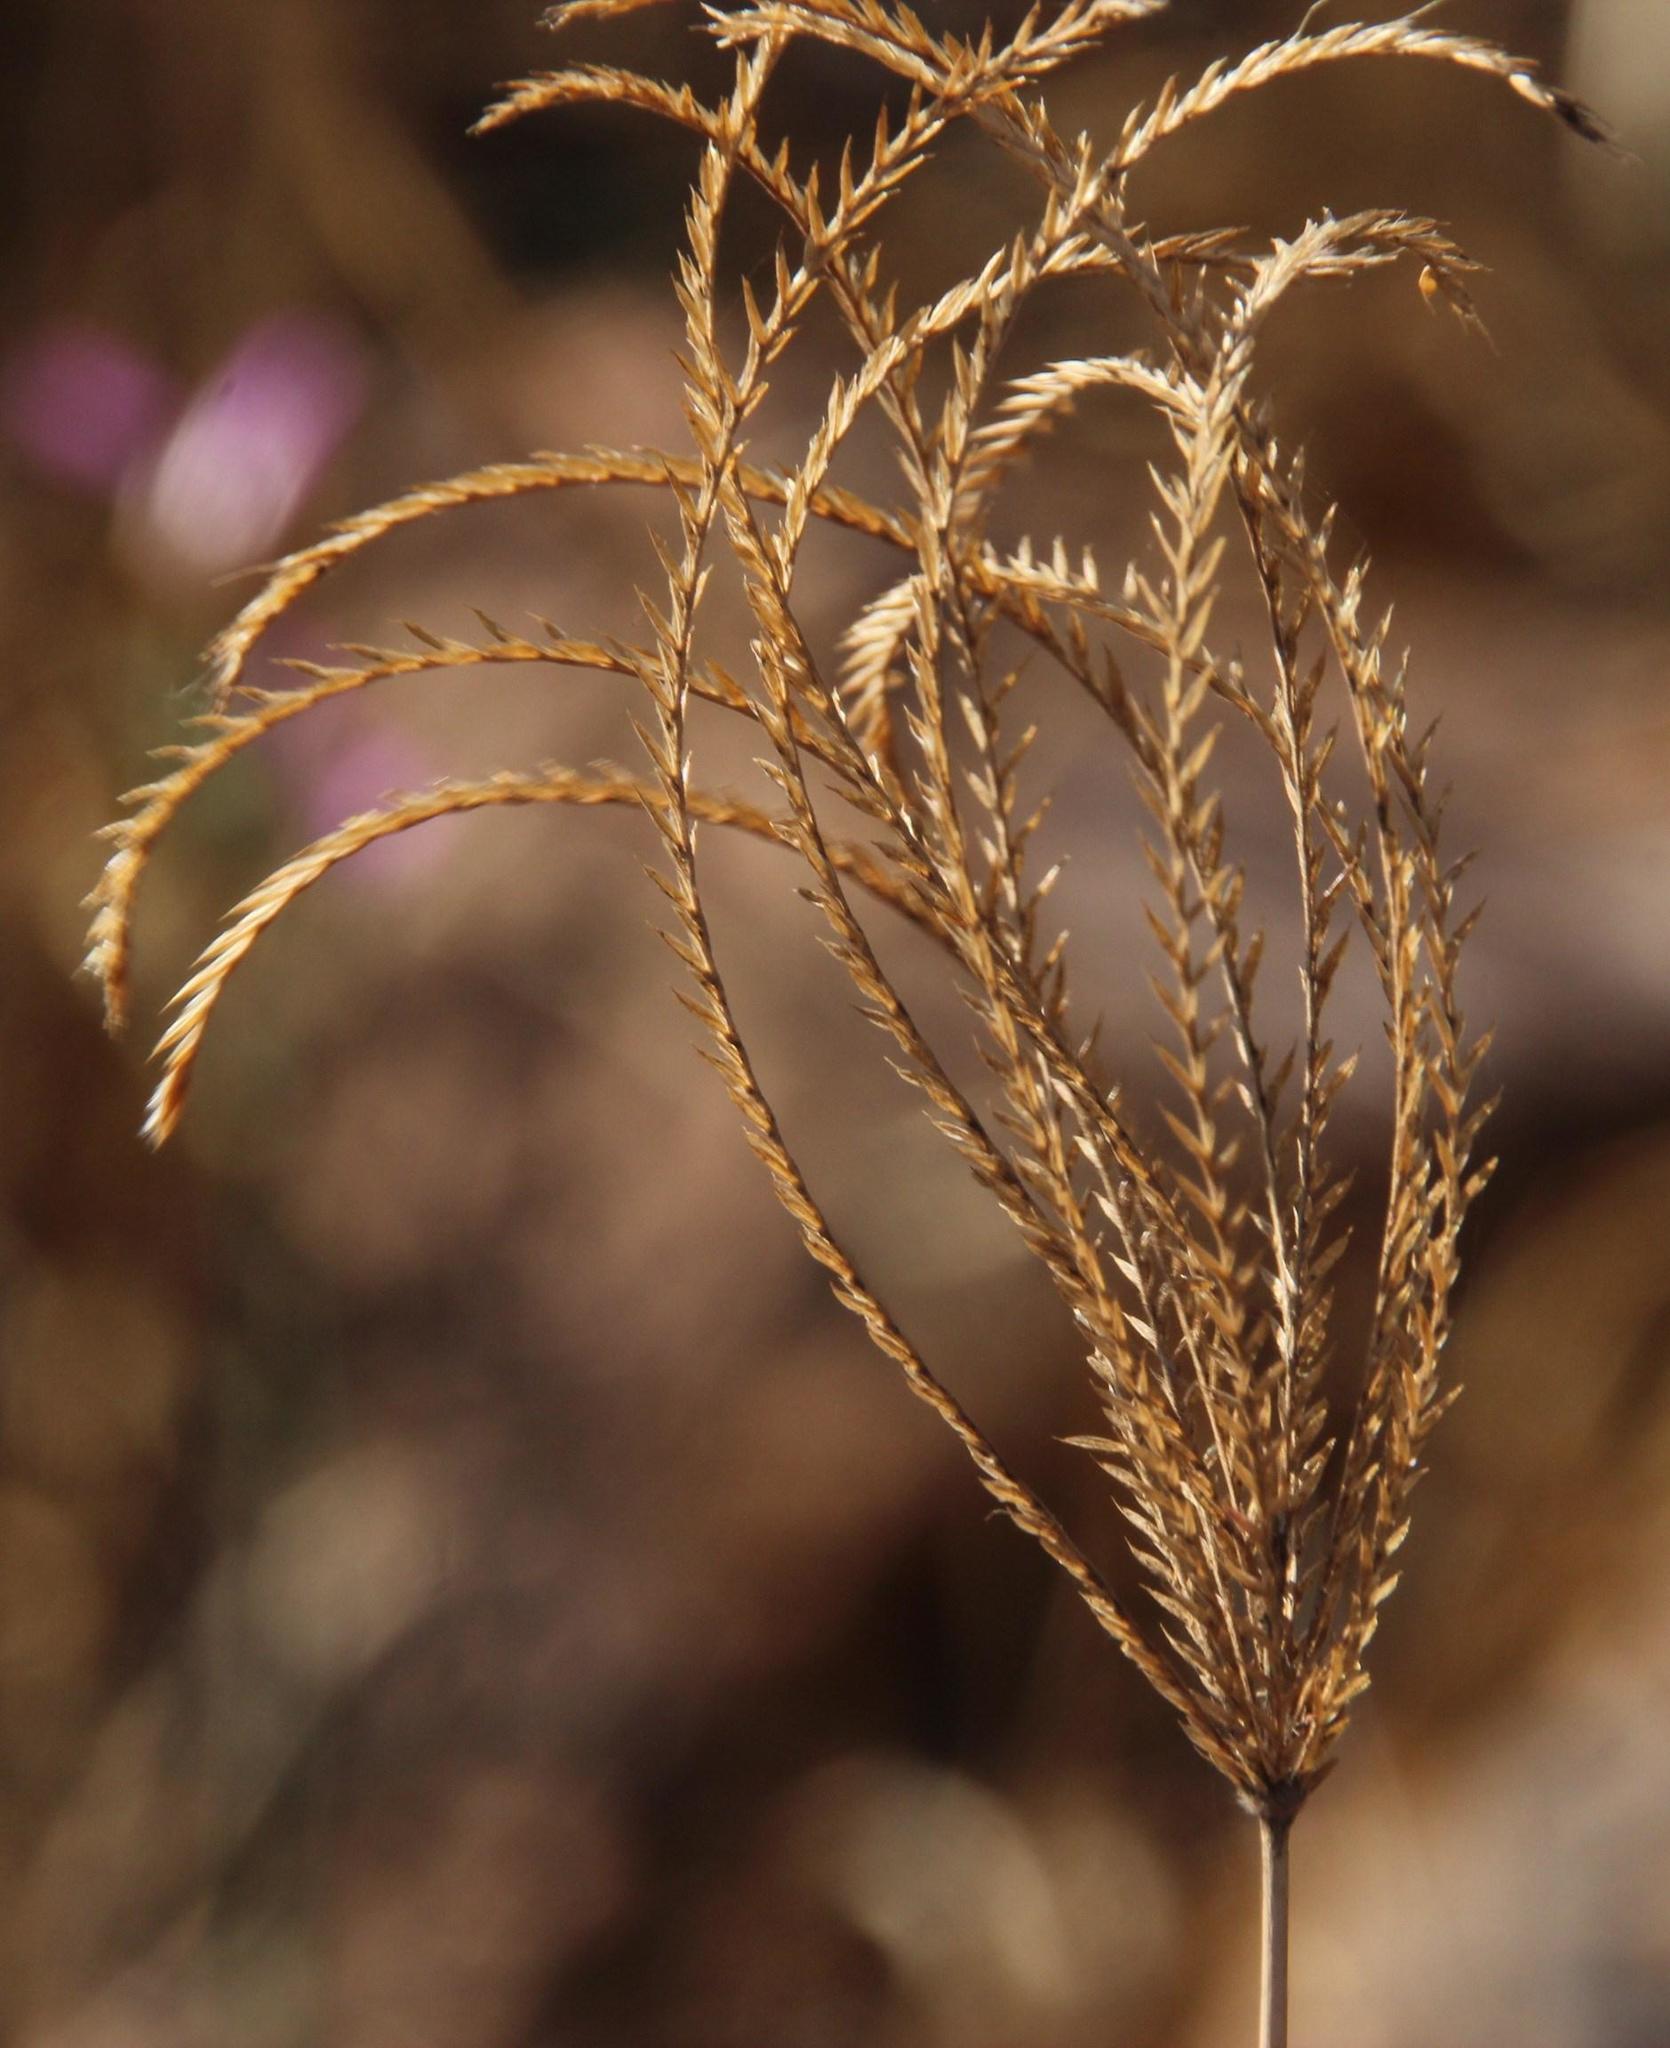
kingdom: Plantae
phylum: Tracheophyta
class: Liliopsida
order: Poales
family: Poaceae
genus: Chloris
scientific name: Chloris gayana
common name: Rhodes grass
